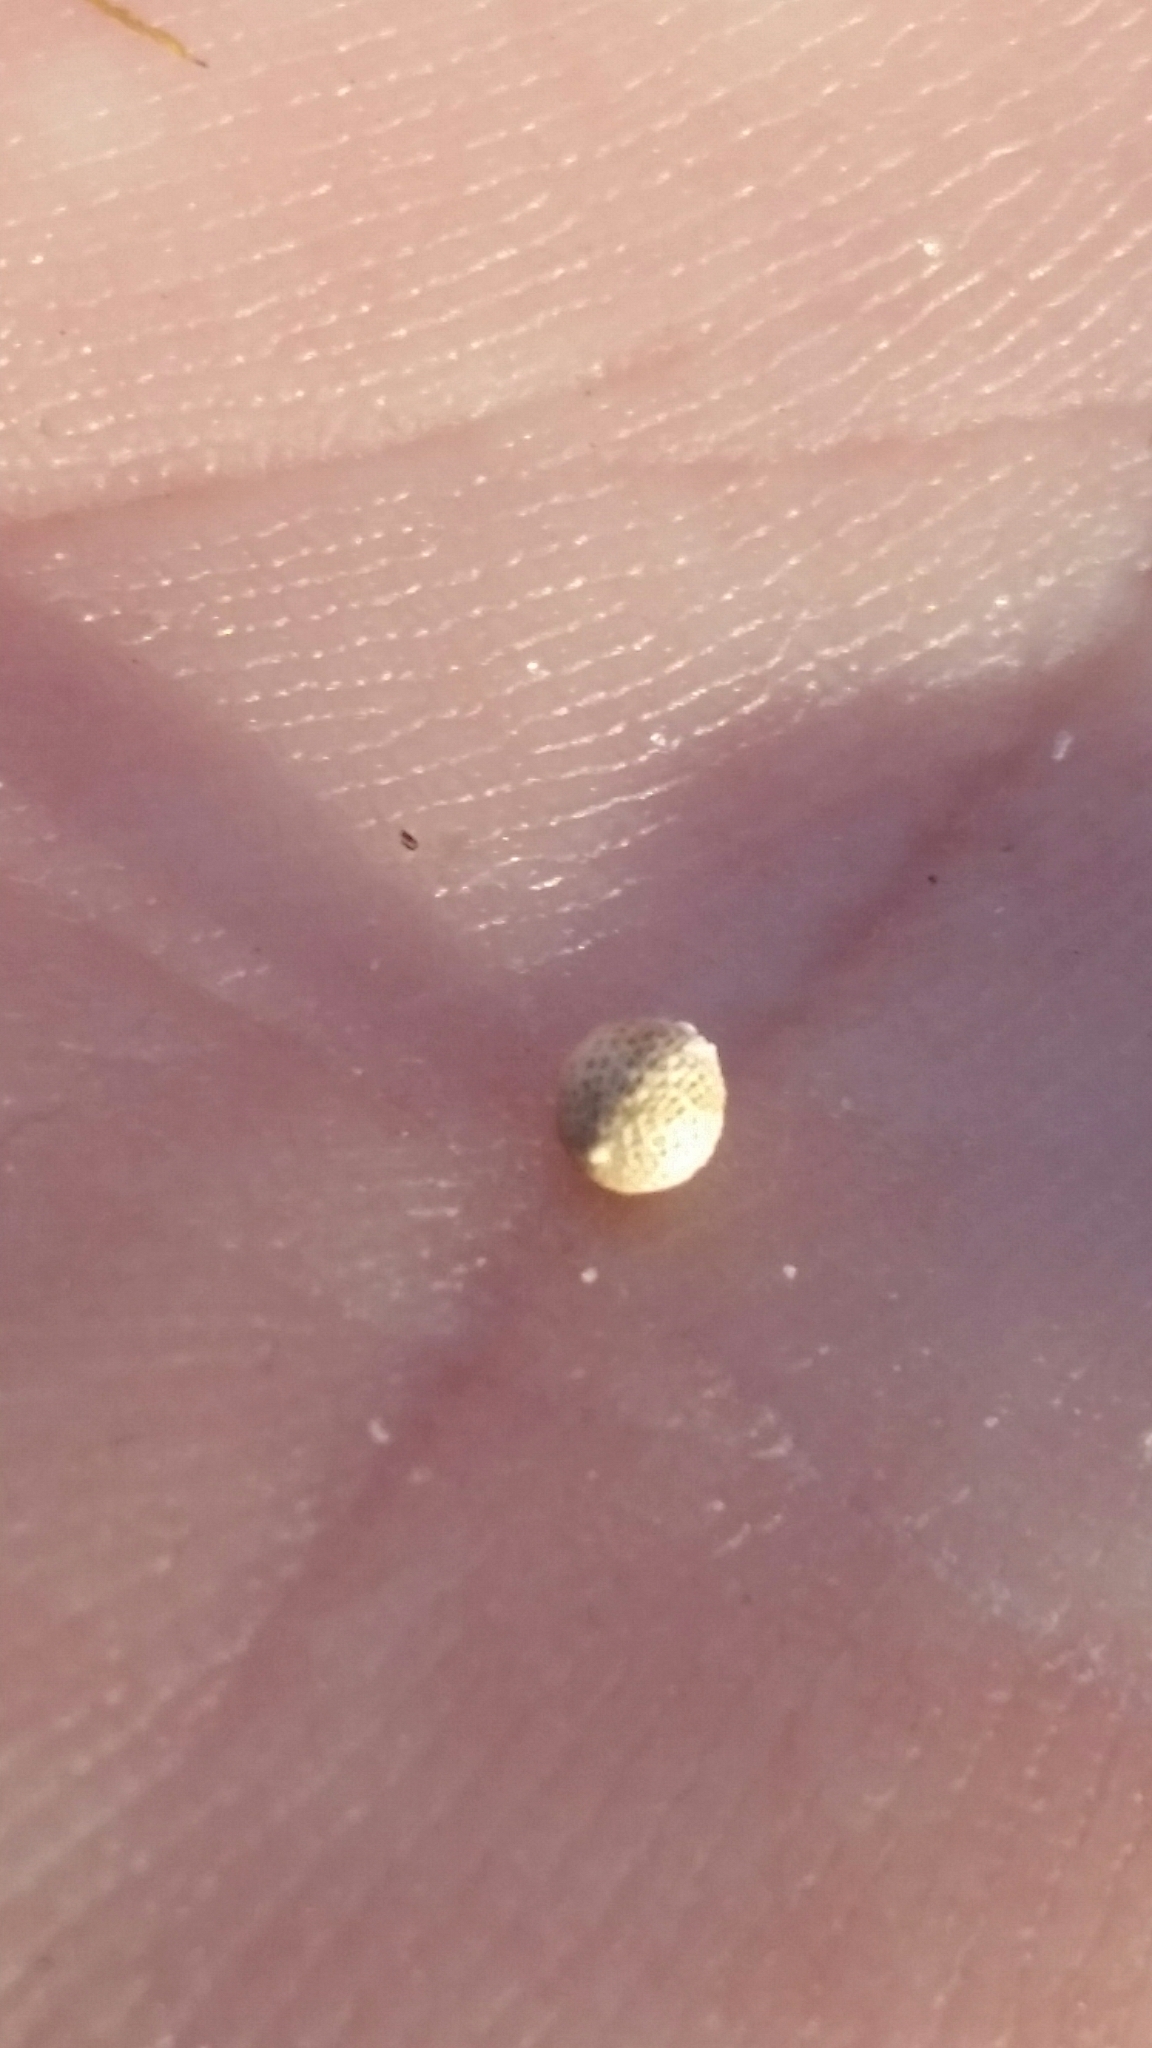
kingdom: Plantae
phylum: Tracheophyta
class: Liliopsida
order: Poales
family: Cyperaceae
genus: Scleria
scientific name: Scleria muehlenbergii
